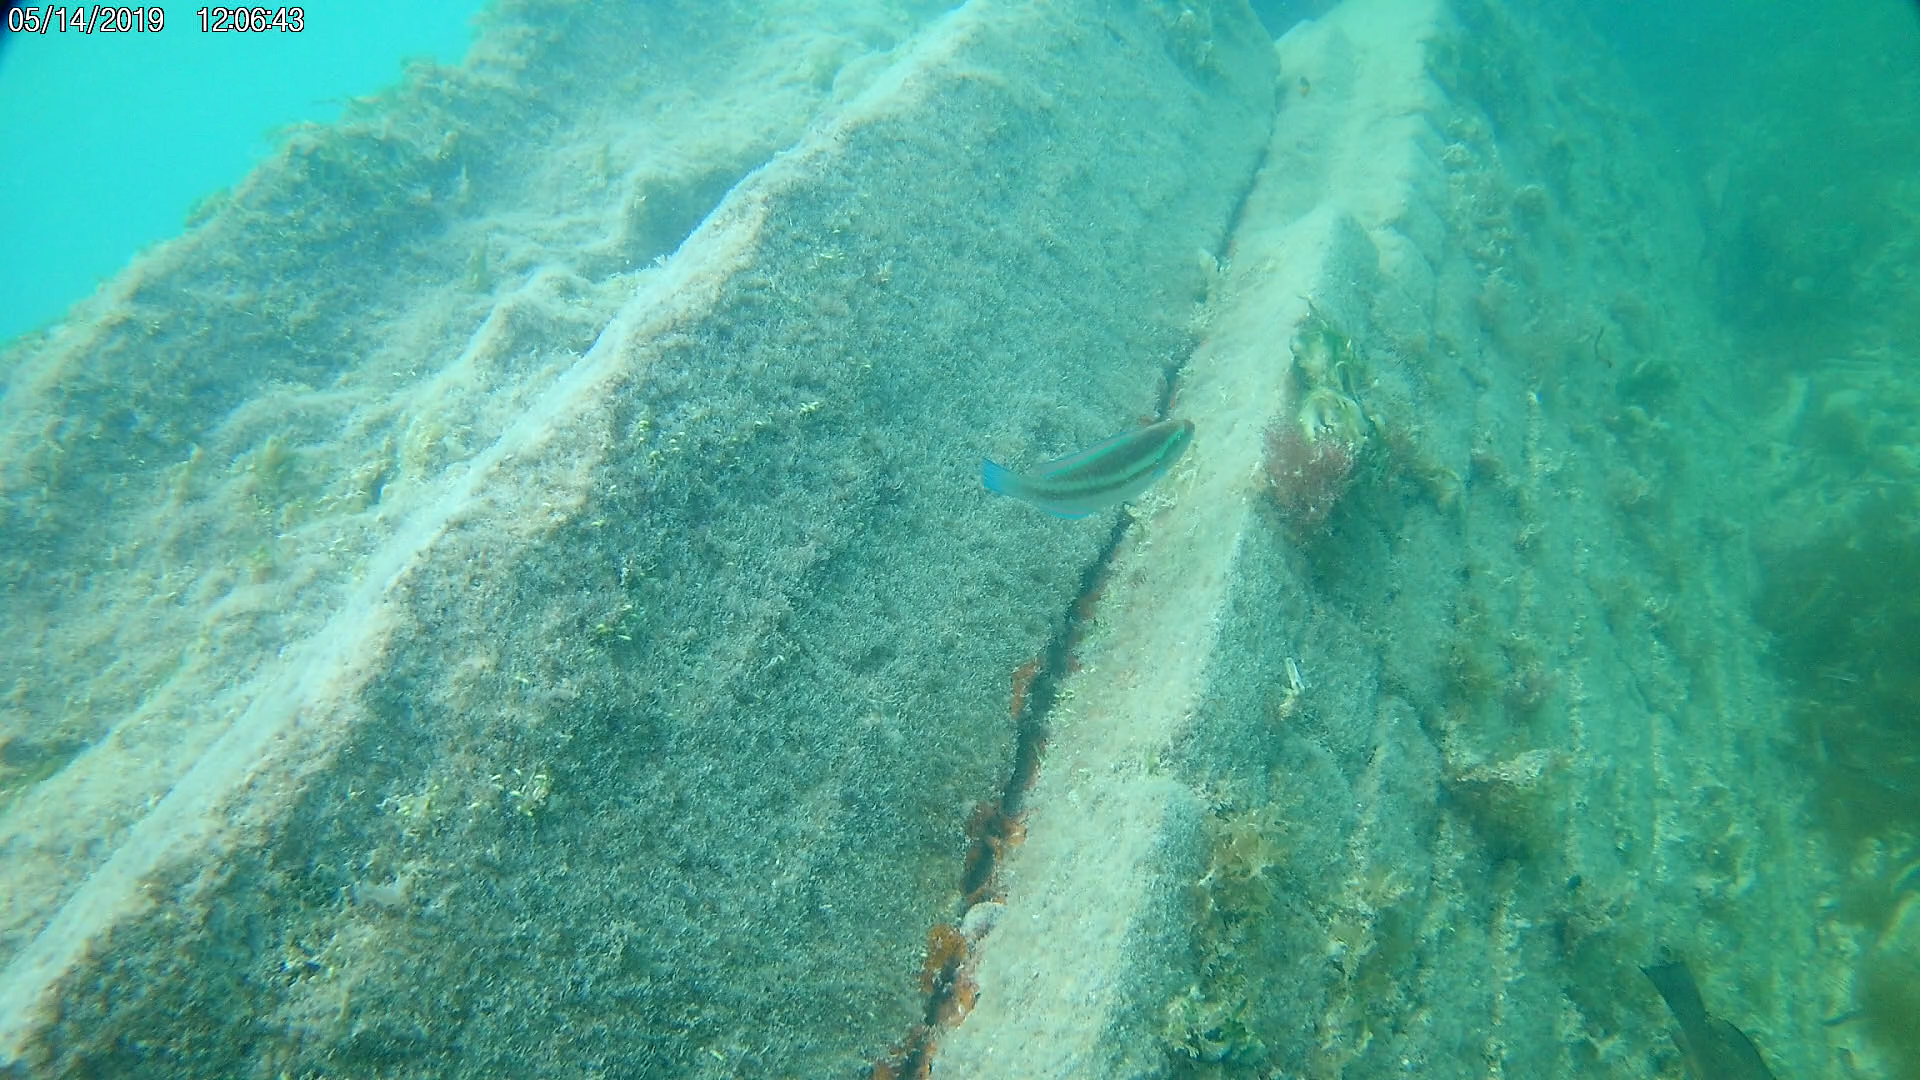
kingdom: Animalia
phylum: Chordata
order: Perciformes
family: Scaridae
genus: Scarus
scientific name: Scarus iseri
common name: Striped parrotfish
